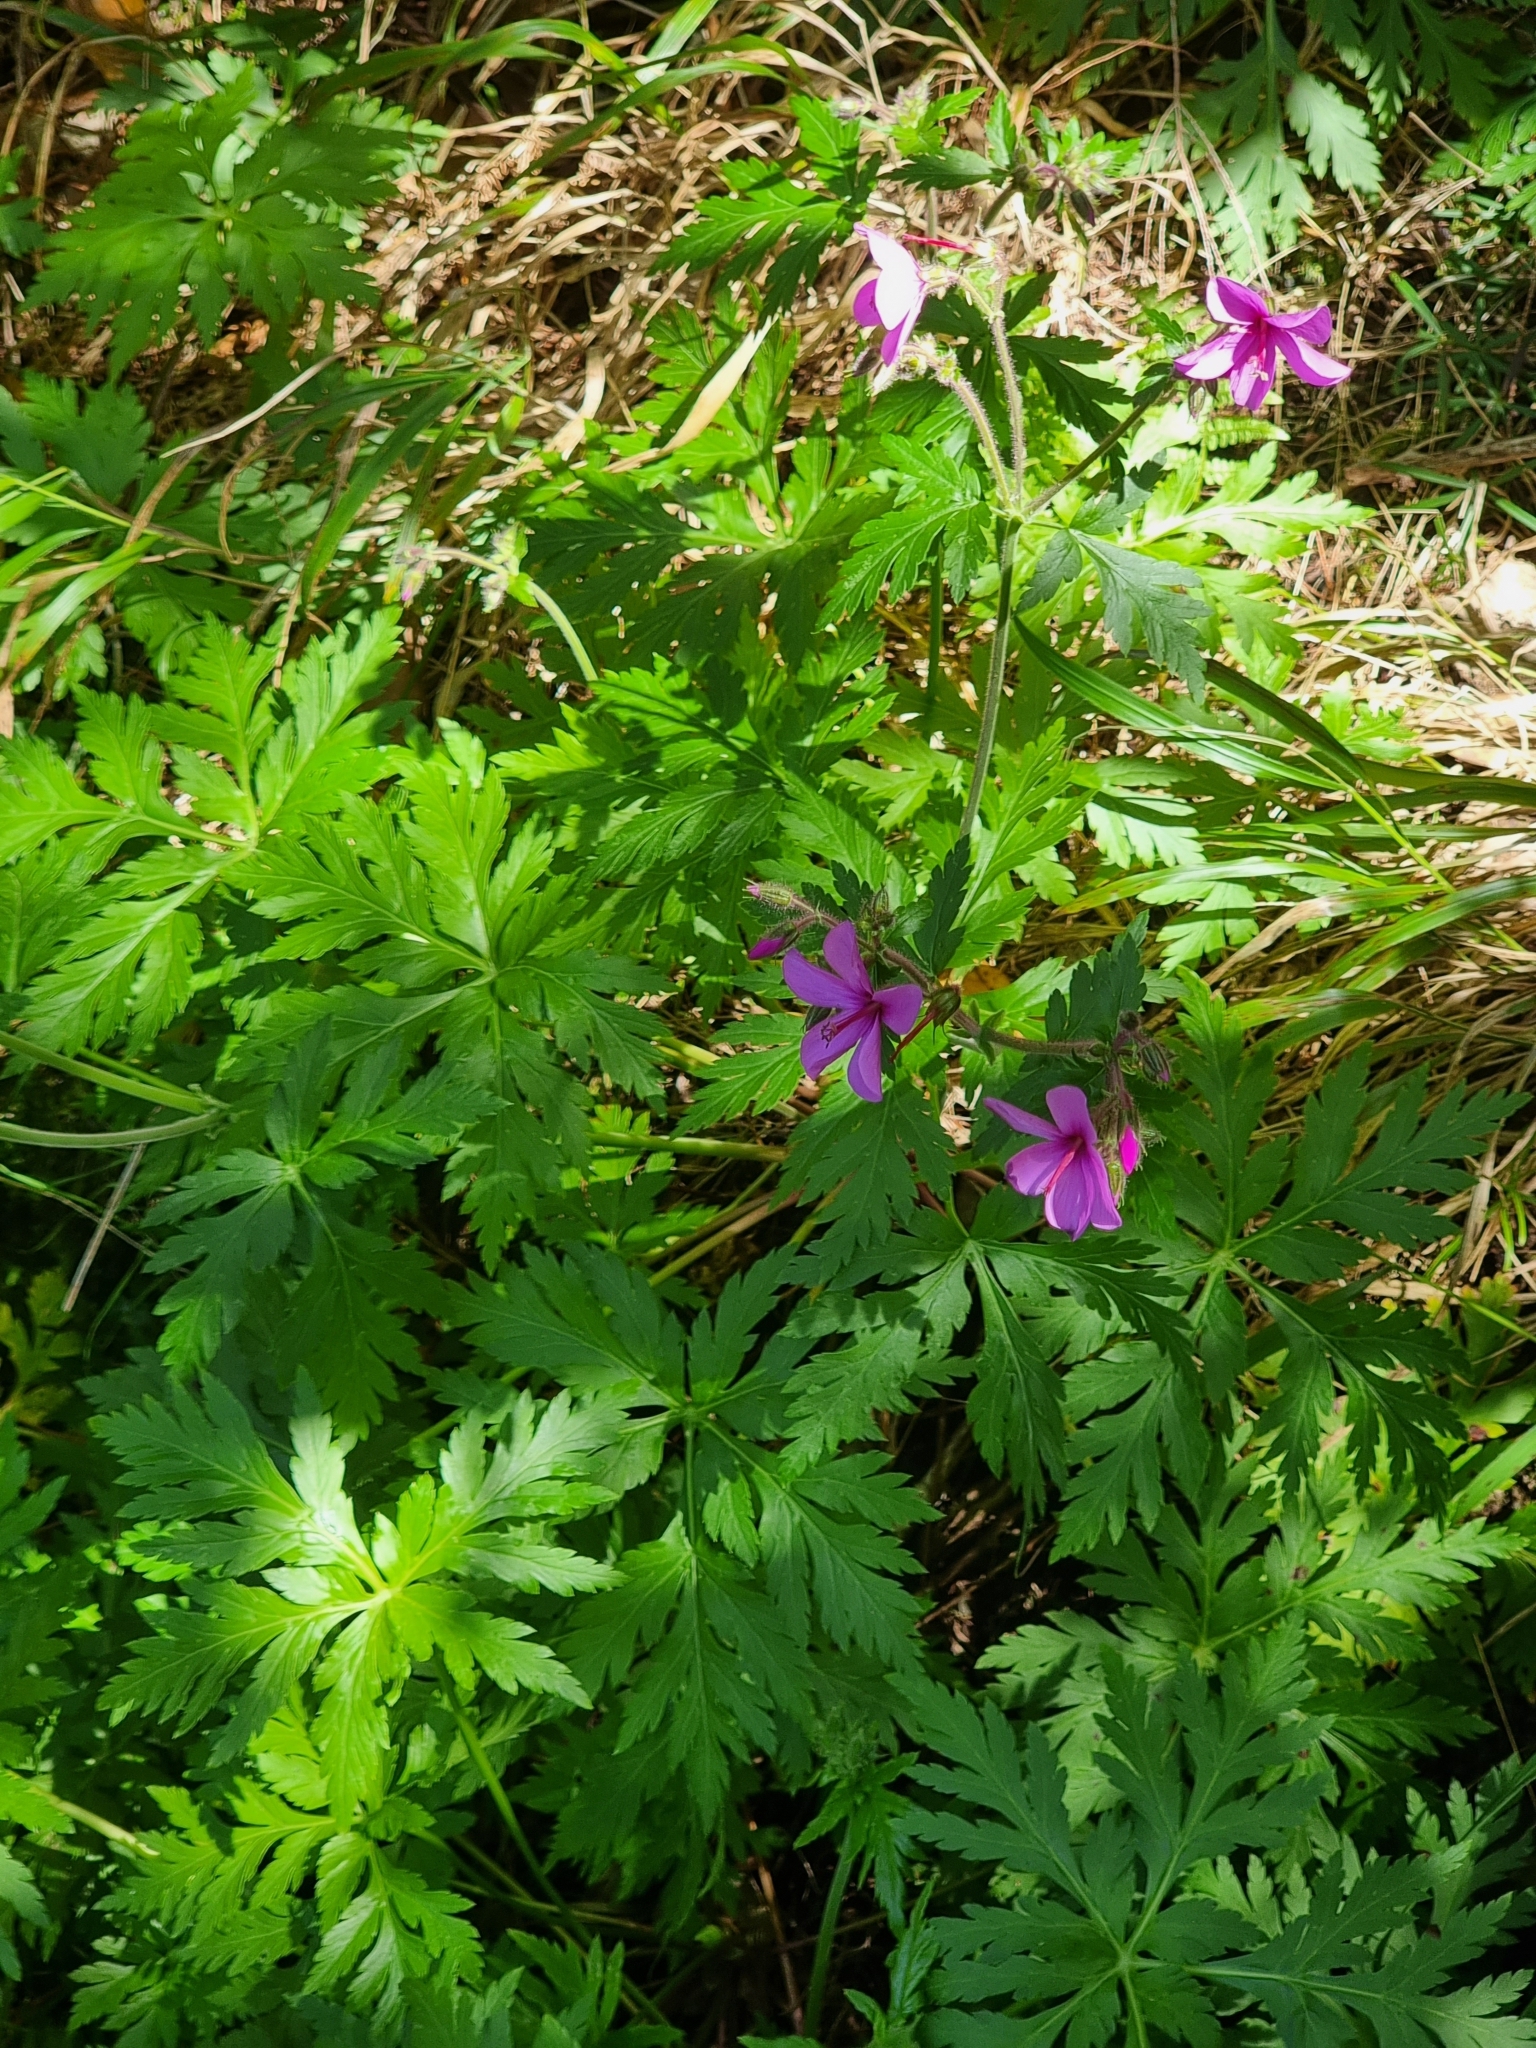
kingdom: Plantae
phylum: Tracheophyta
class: Magnoliopsida
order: Geraniales
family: Geraniaceae
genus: Geranium
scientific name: Geranium palmatum
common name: Canary island geranium
